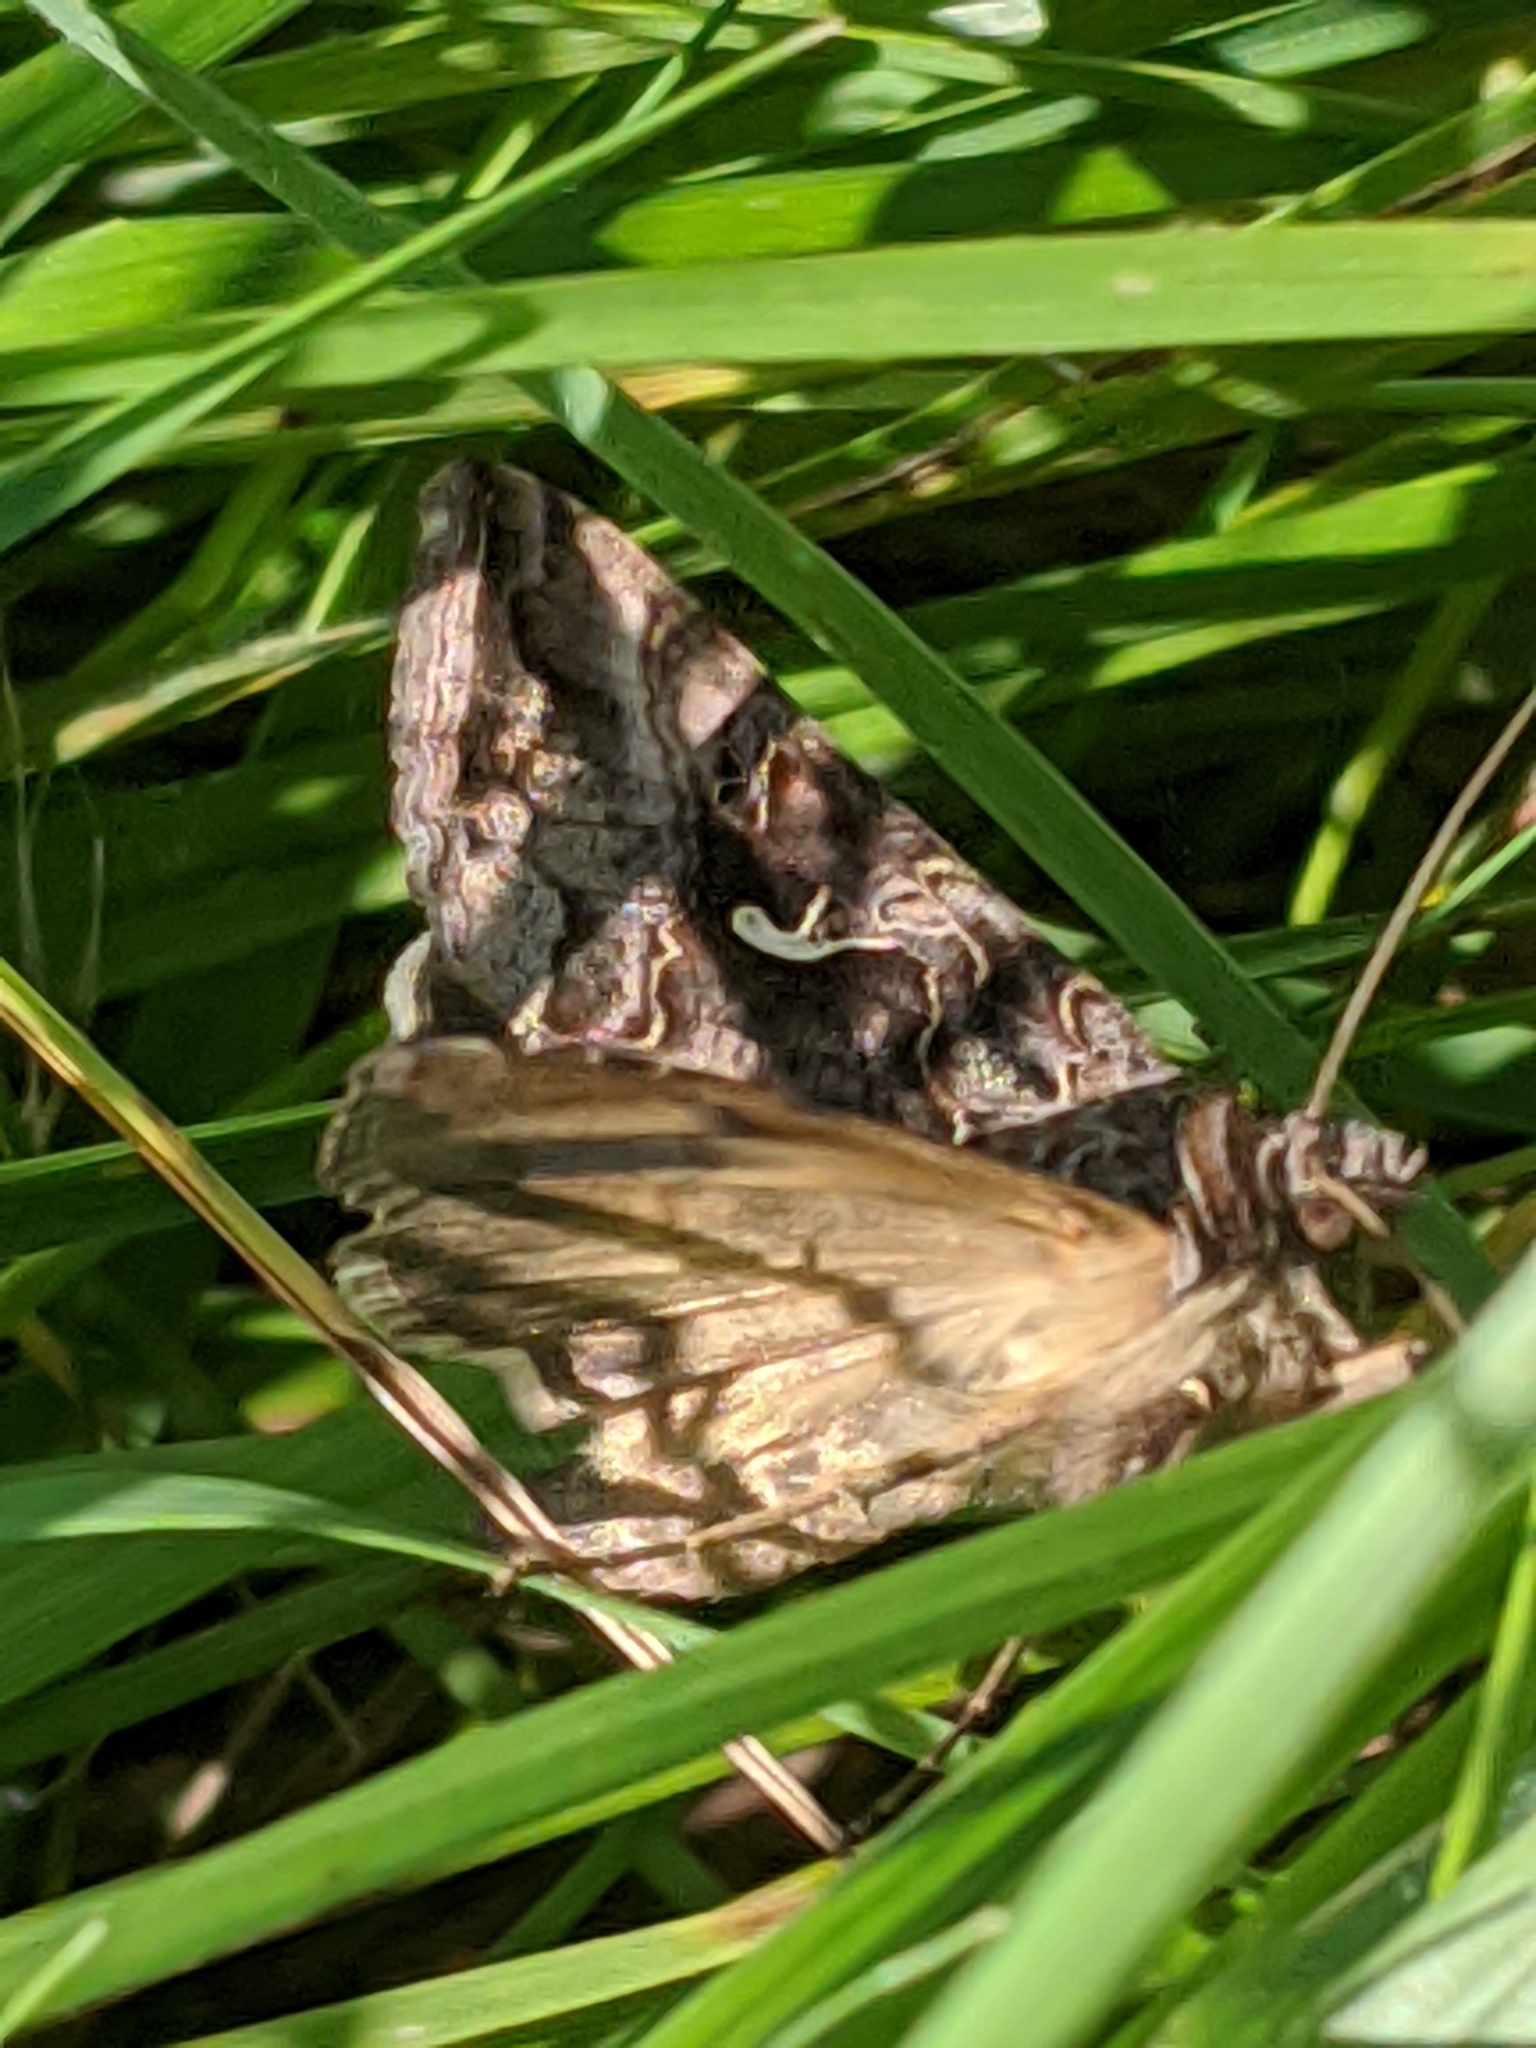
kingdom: Animalia
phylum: Arthropoda
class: Insecta
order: Lepidoptera
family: Noctuidae
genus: Autographa
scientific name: Autographa gamma
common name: Silver y
